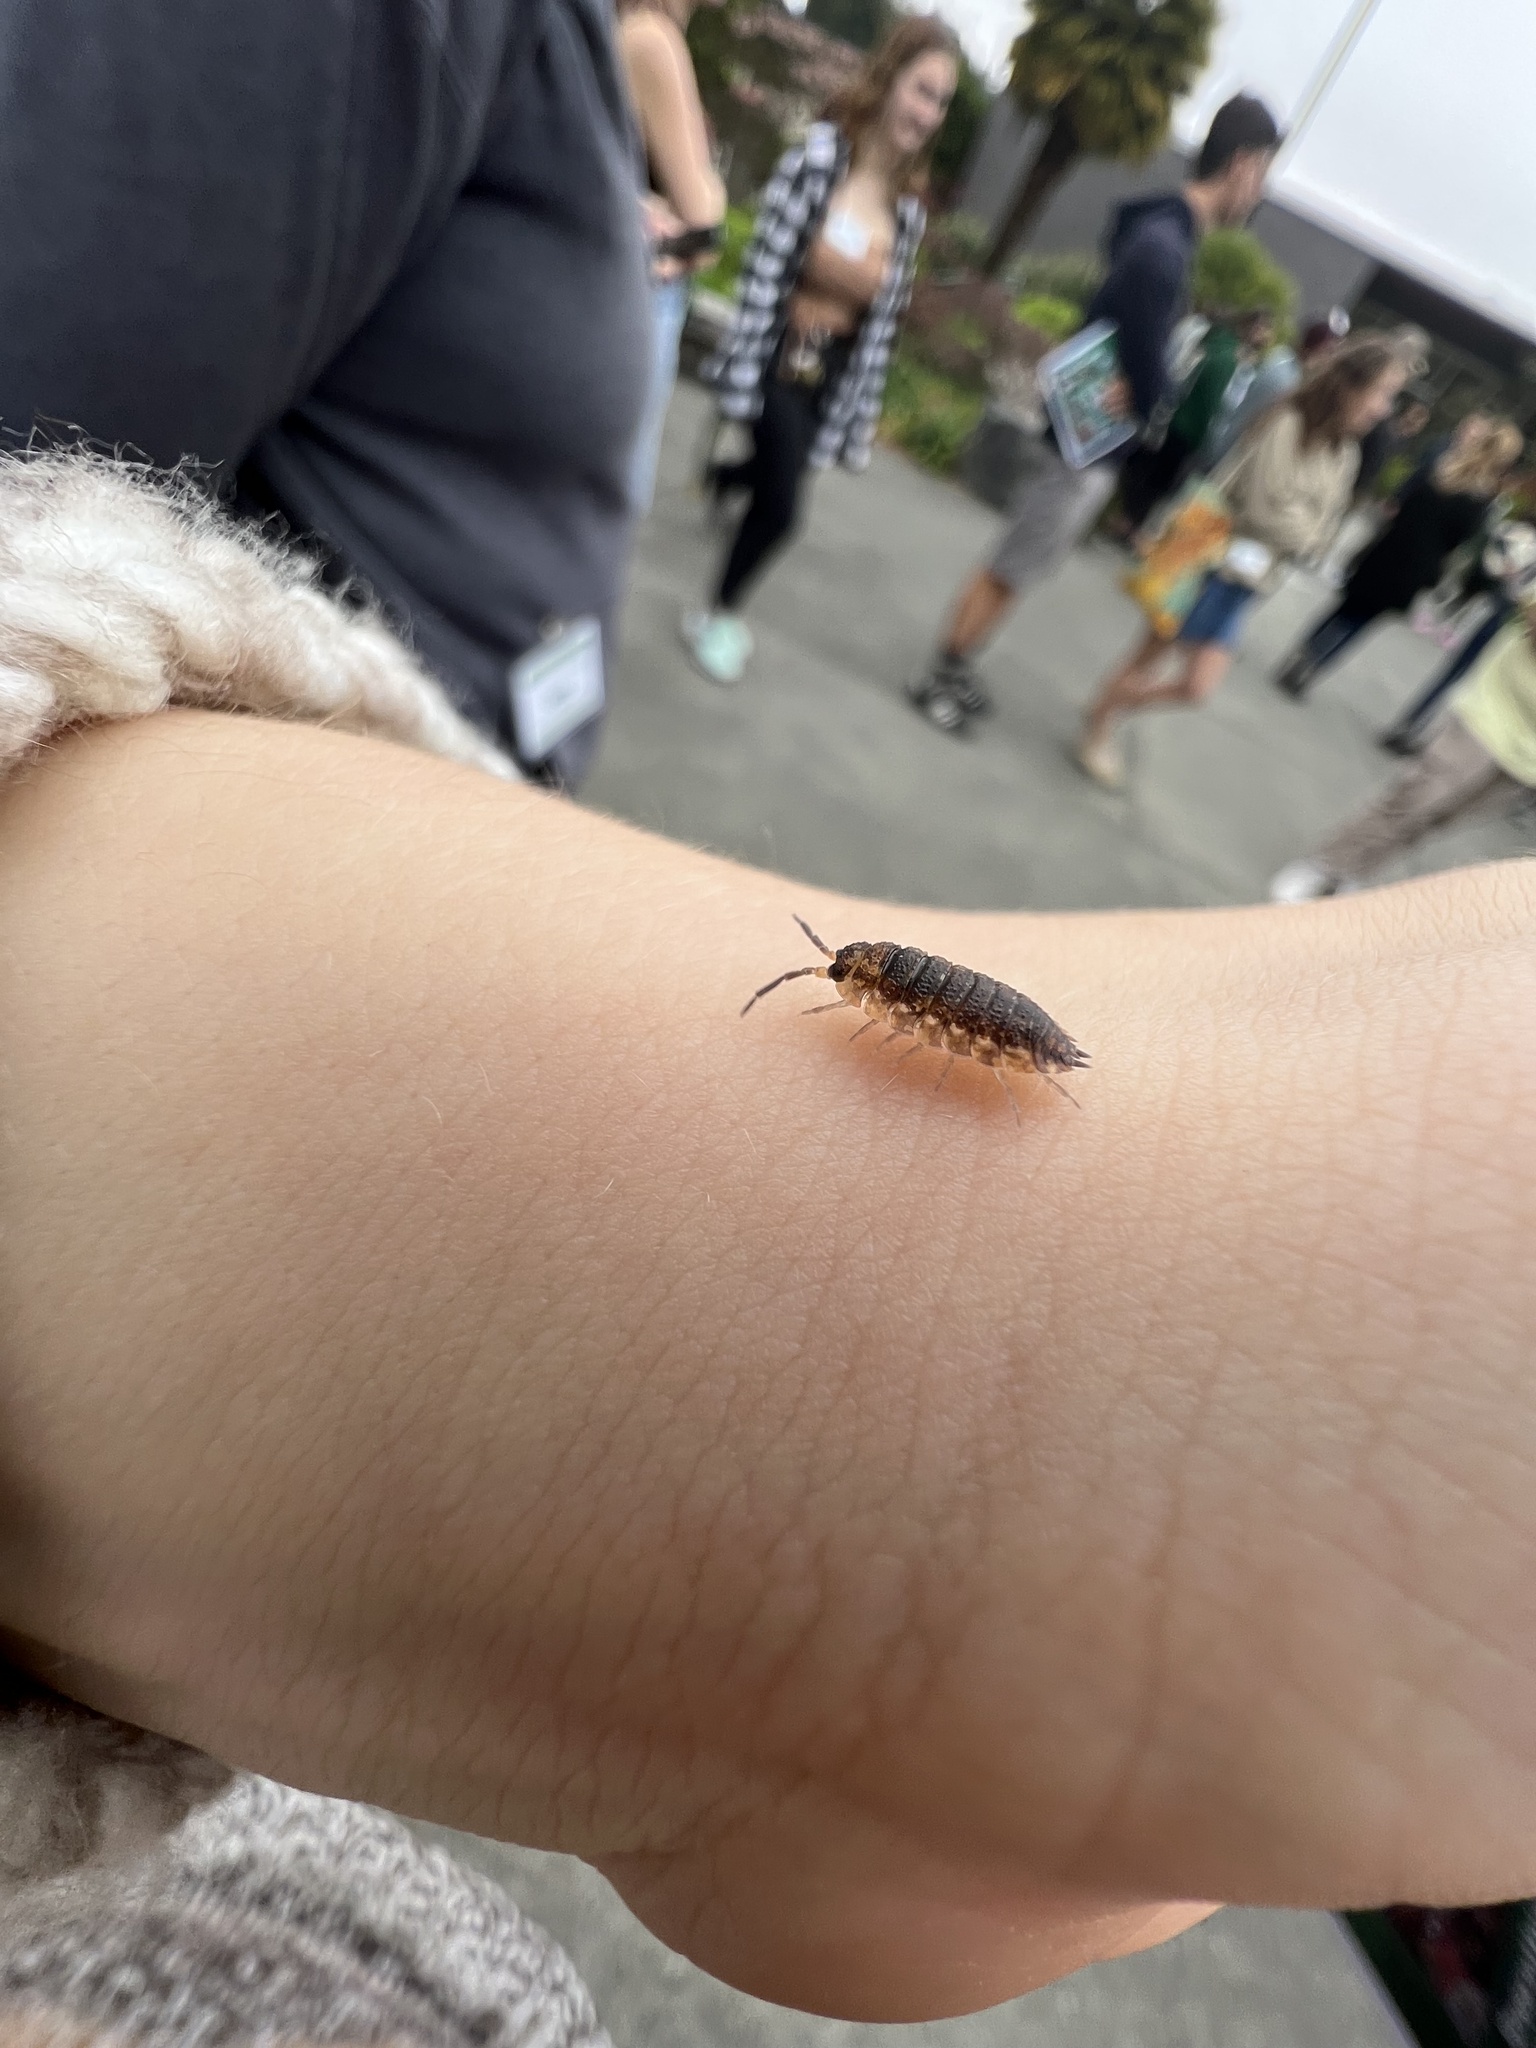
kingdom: Animalia
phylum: Arthropoda
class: Malacostraca
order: Isopoda
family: Porcellionidae
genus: Porcellio
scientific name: Porcellio scaber
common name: Common rough woodlouse
